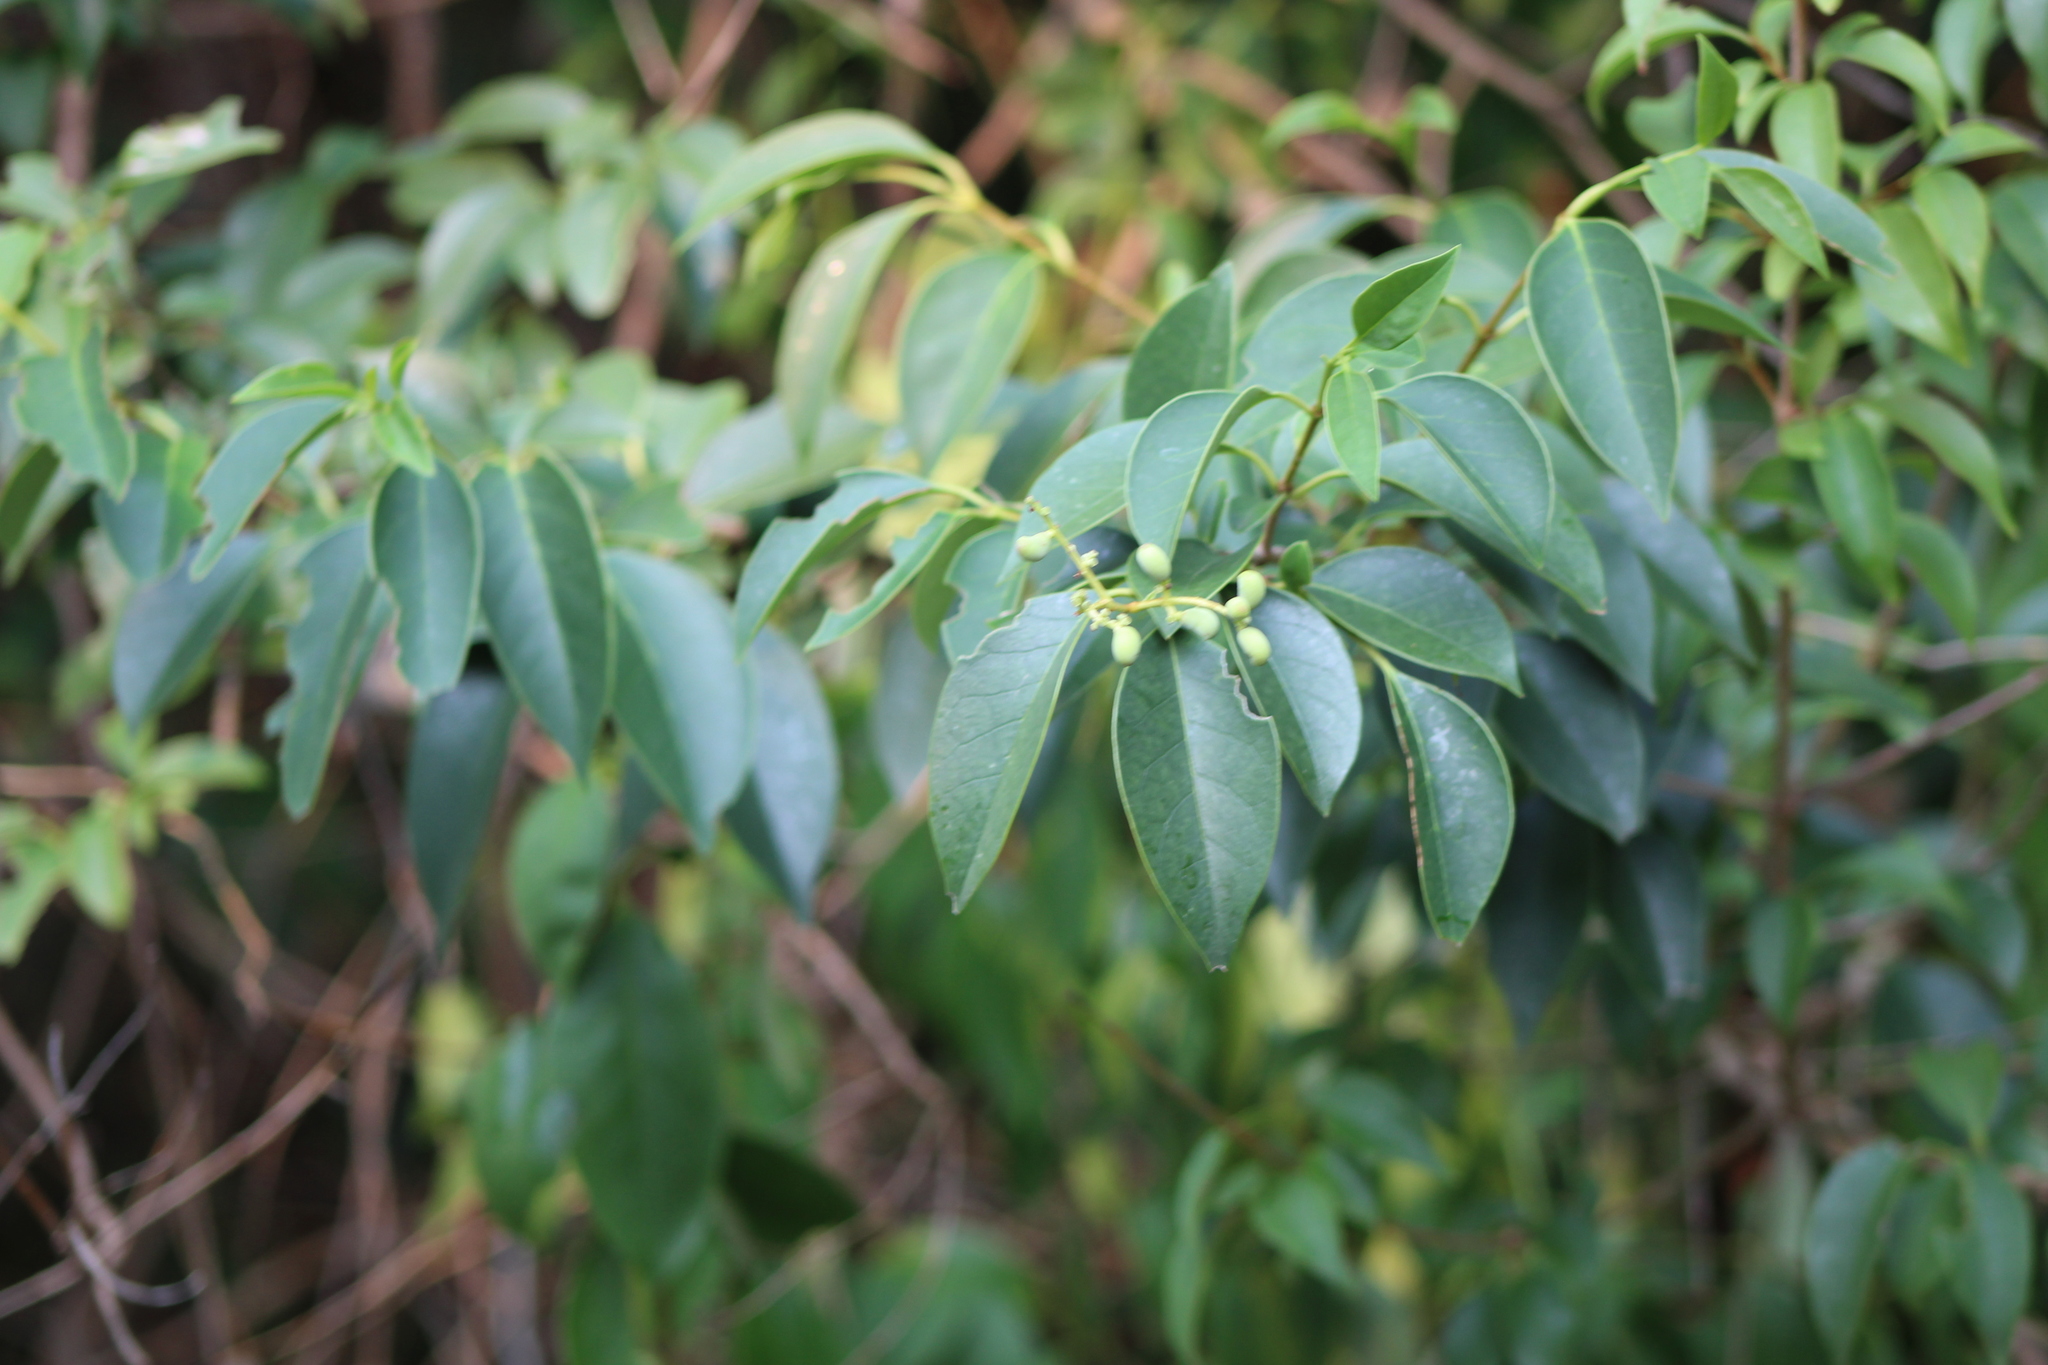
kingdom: Plantae
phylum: Tracheophyta
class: Magnoliopsida
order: Lamiales
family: Oleaceae
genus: Ligustrum
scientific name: Ligustrum lucidum
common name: Glossy privet
